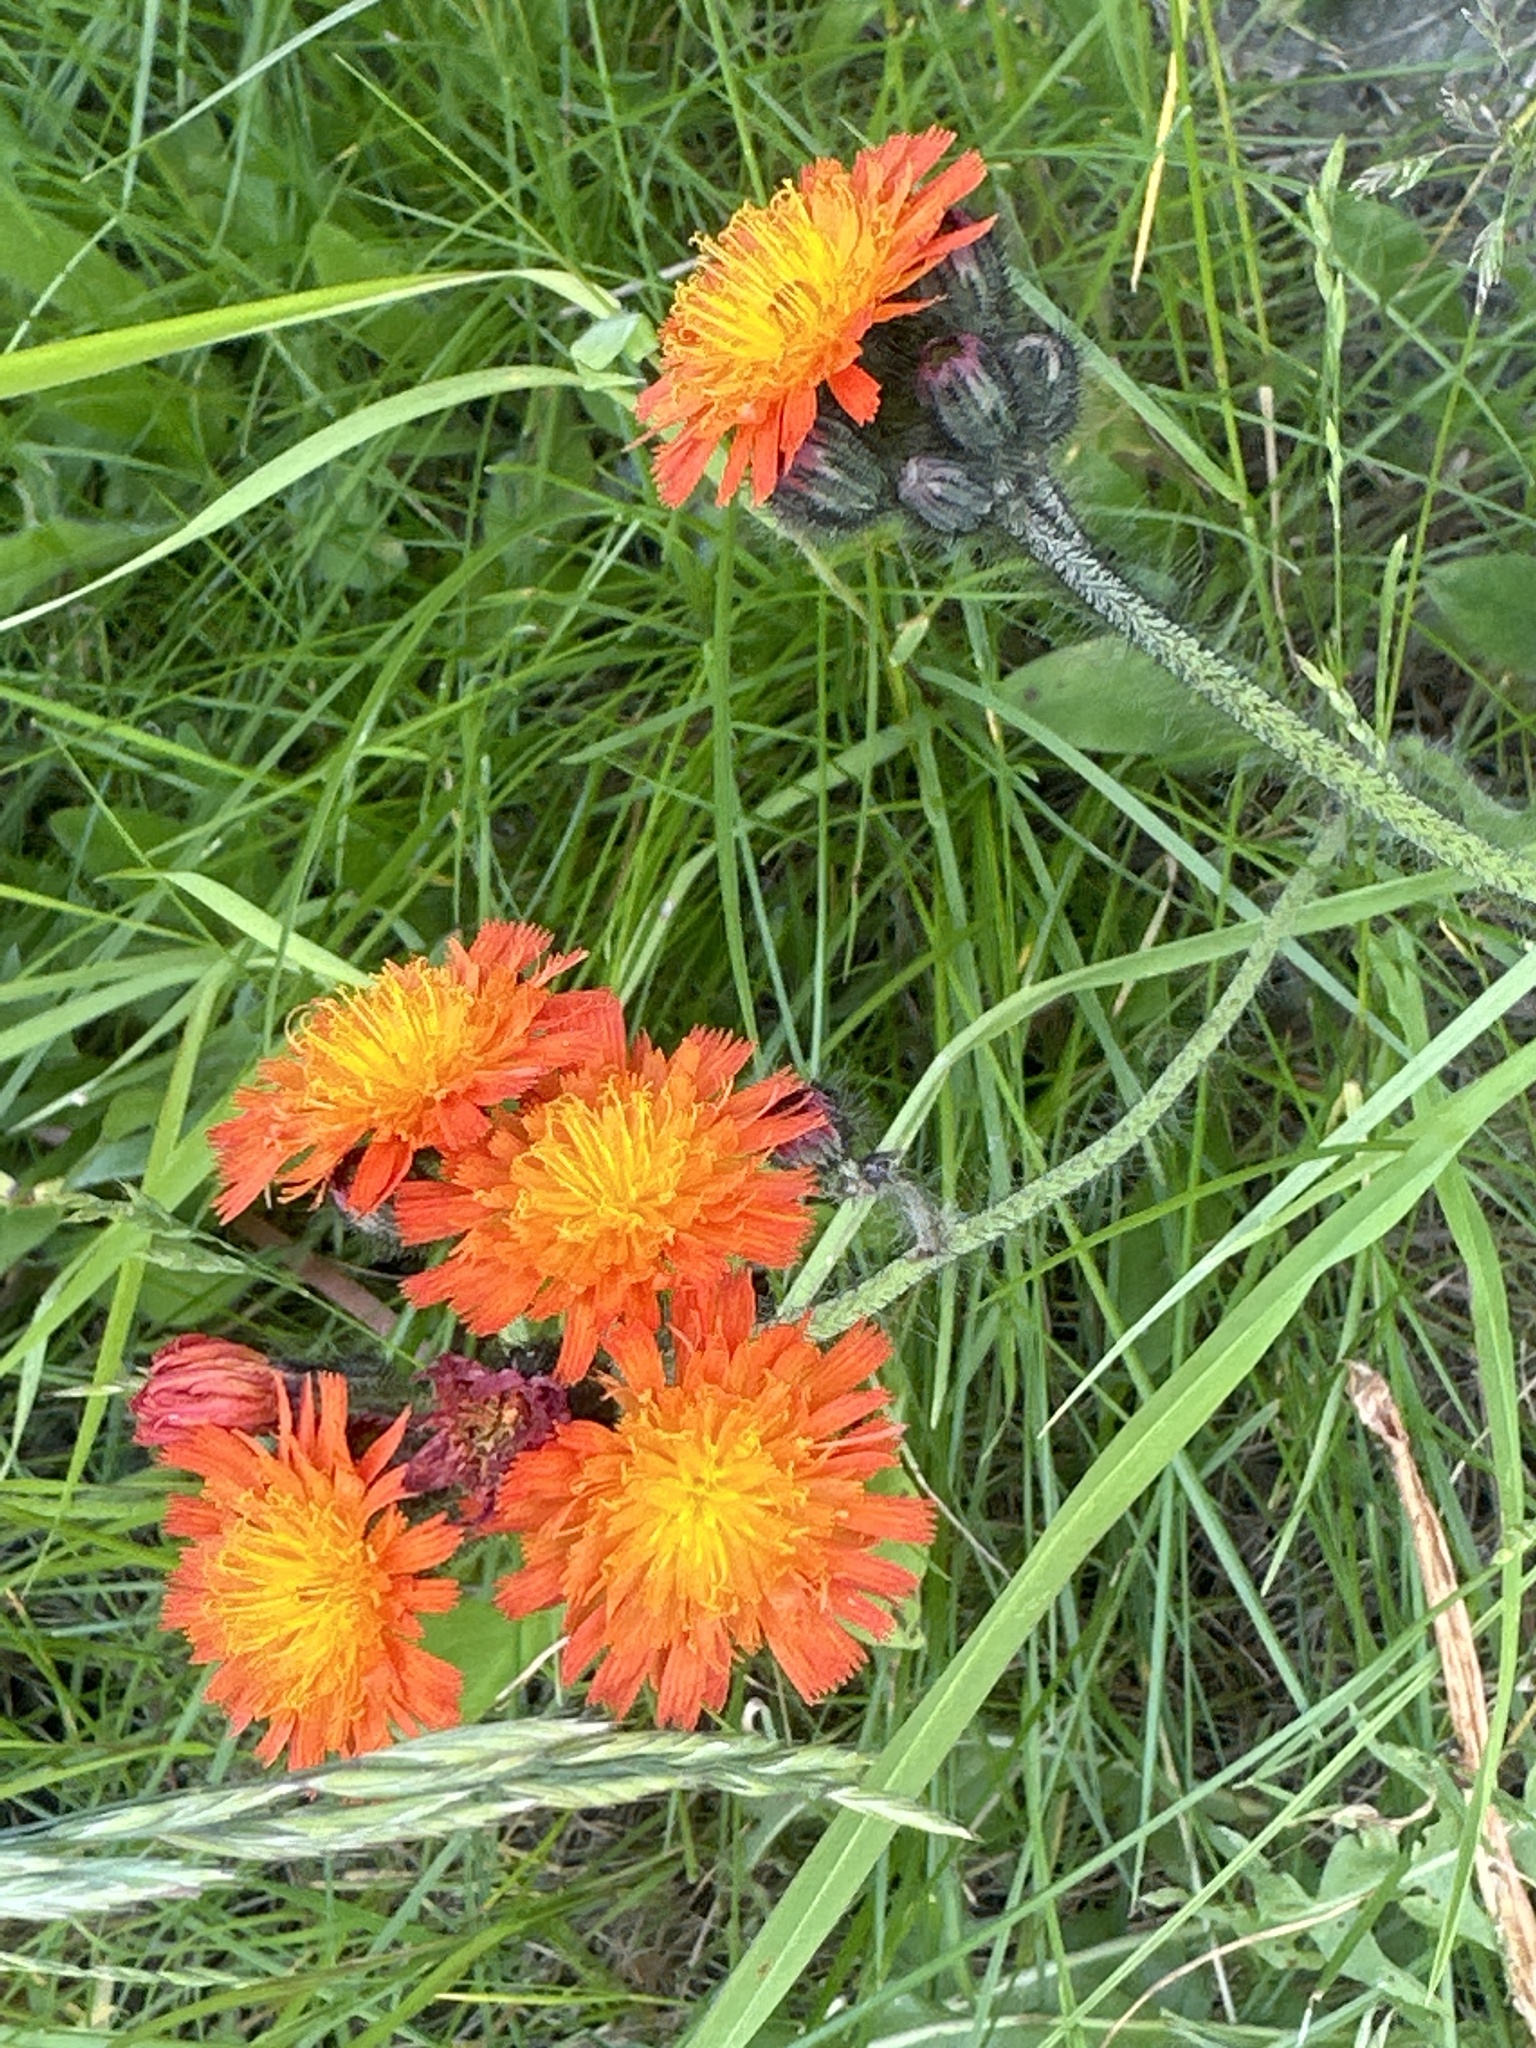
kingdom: Plantae
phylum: Tracheophyta
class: Magnoliopsida
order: Asterales
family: Asteraceae
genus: Pilosella
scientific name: Pilosella aurantiaca
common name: Fox-and-cubs
